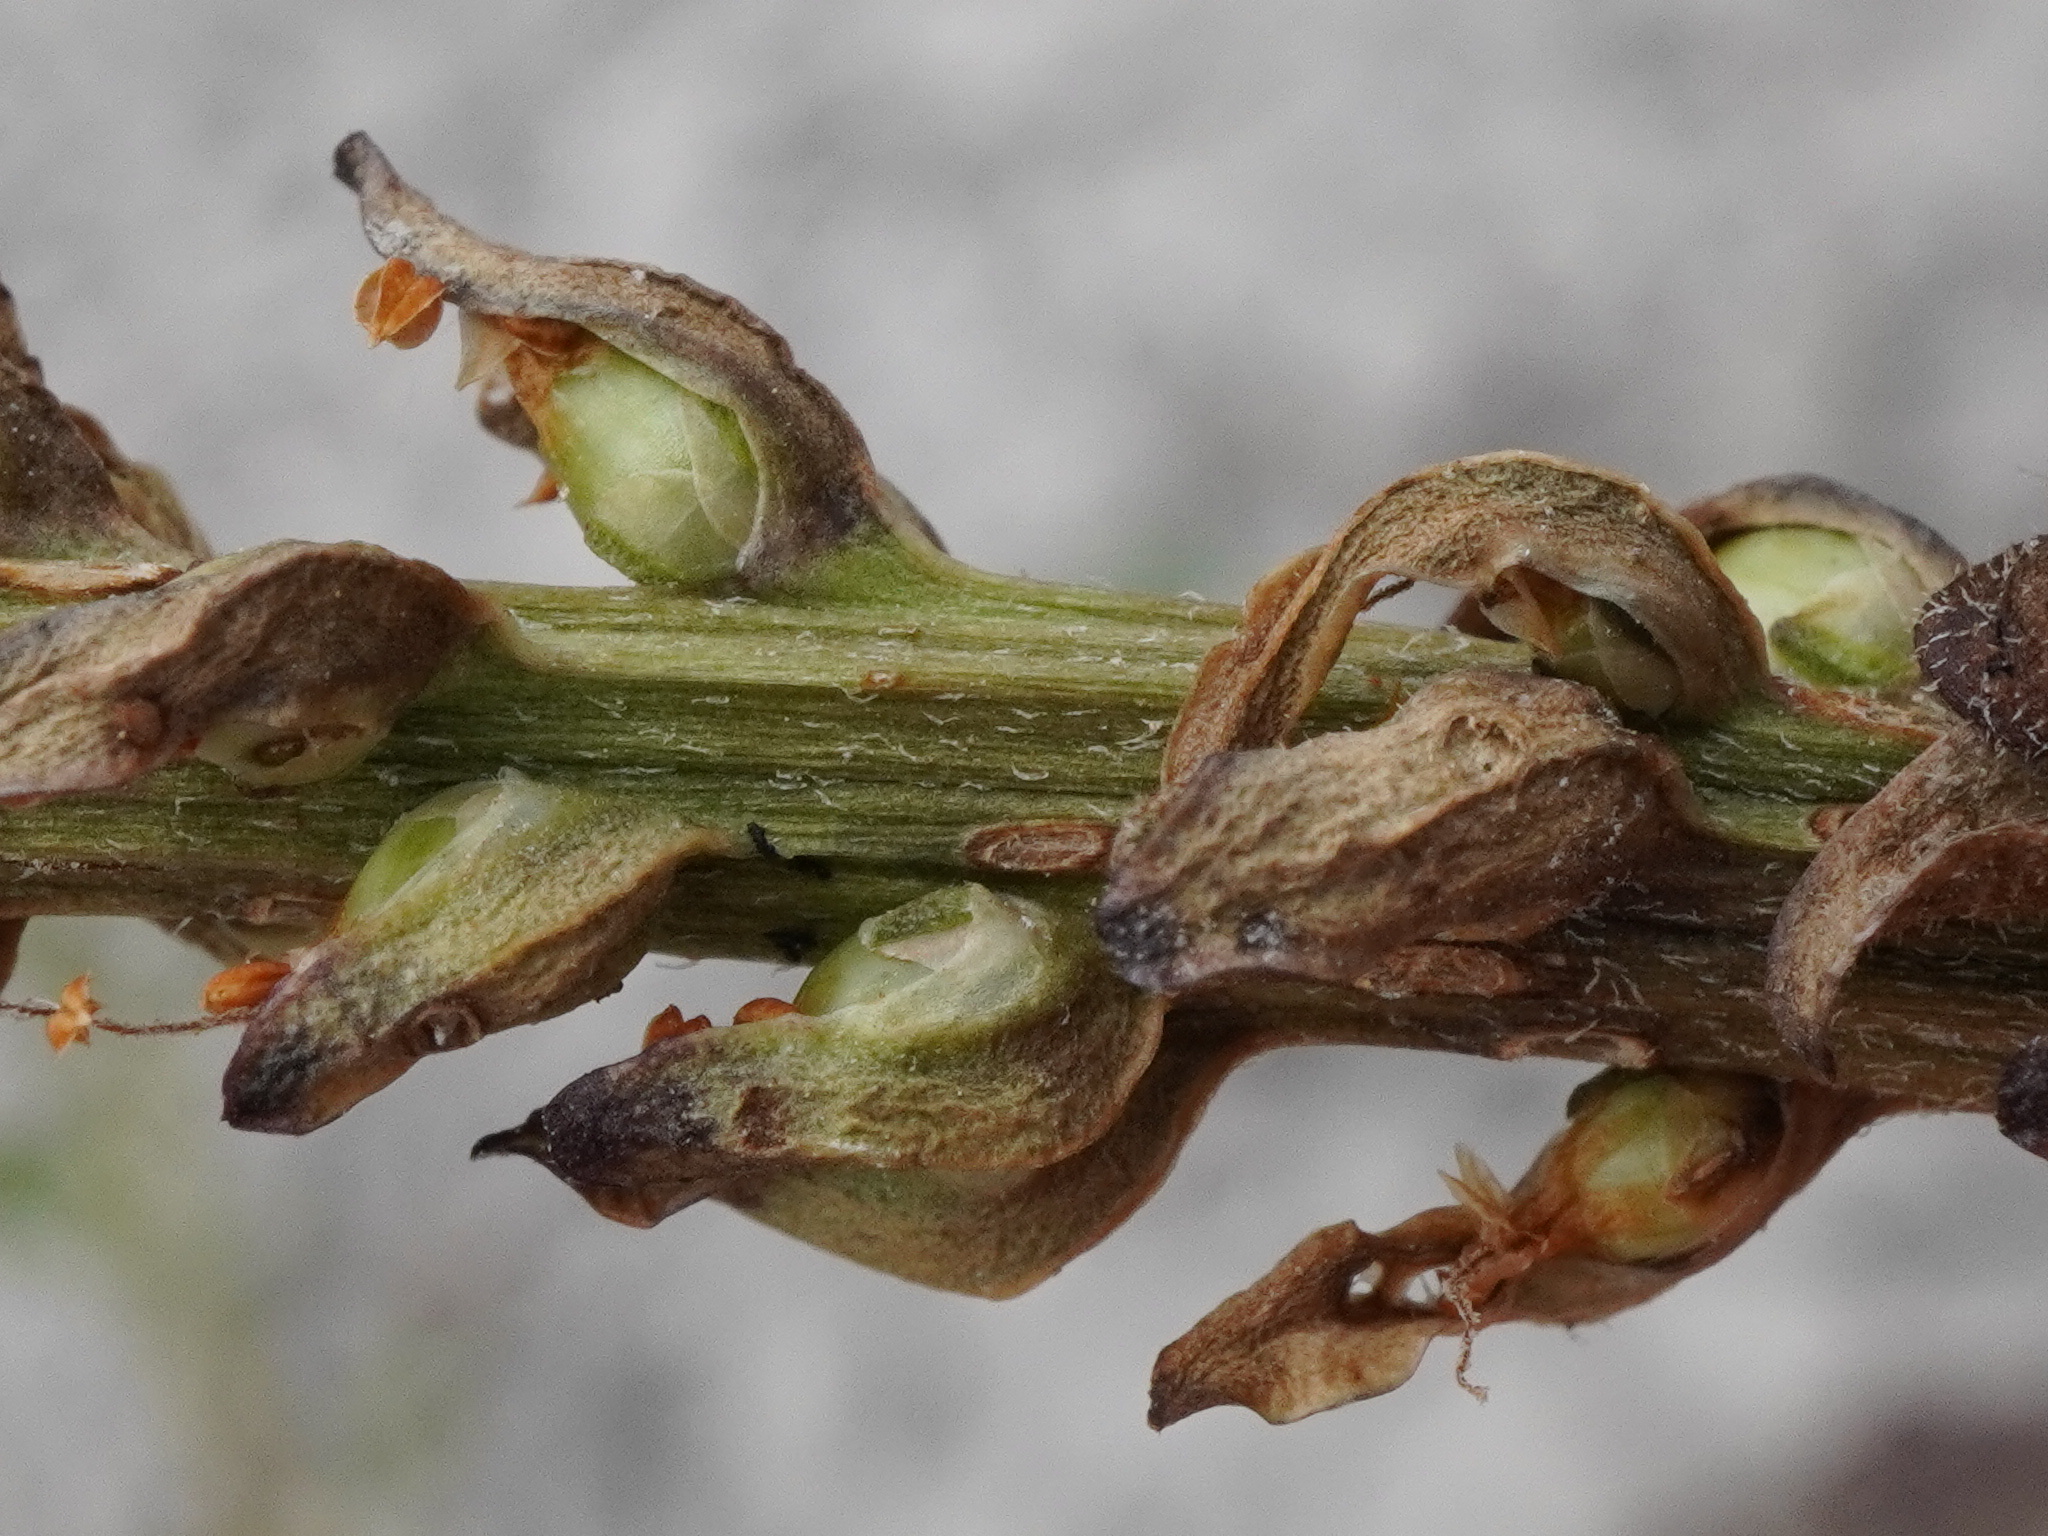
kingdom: Plantae
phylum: Tracheophyta
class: Magnoliopsida
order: Lamiales
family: Plantaginaceae
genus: Plantago
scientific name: Plantago major
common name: Common plantain
